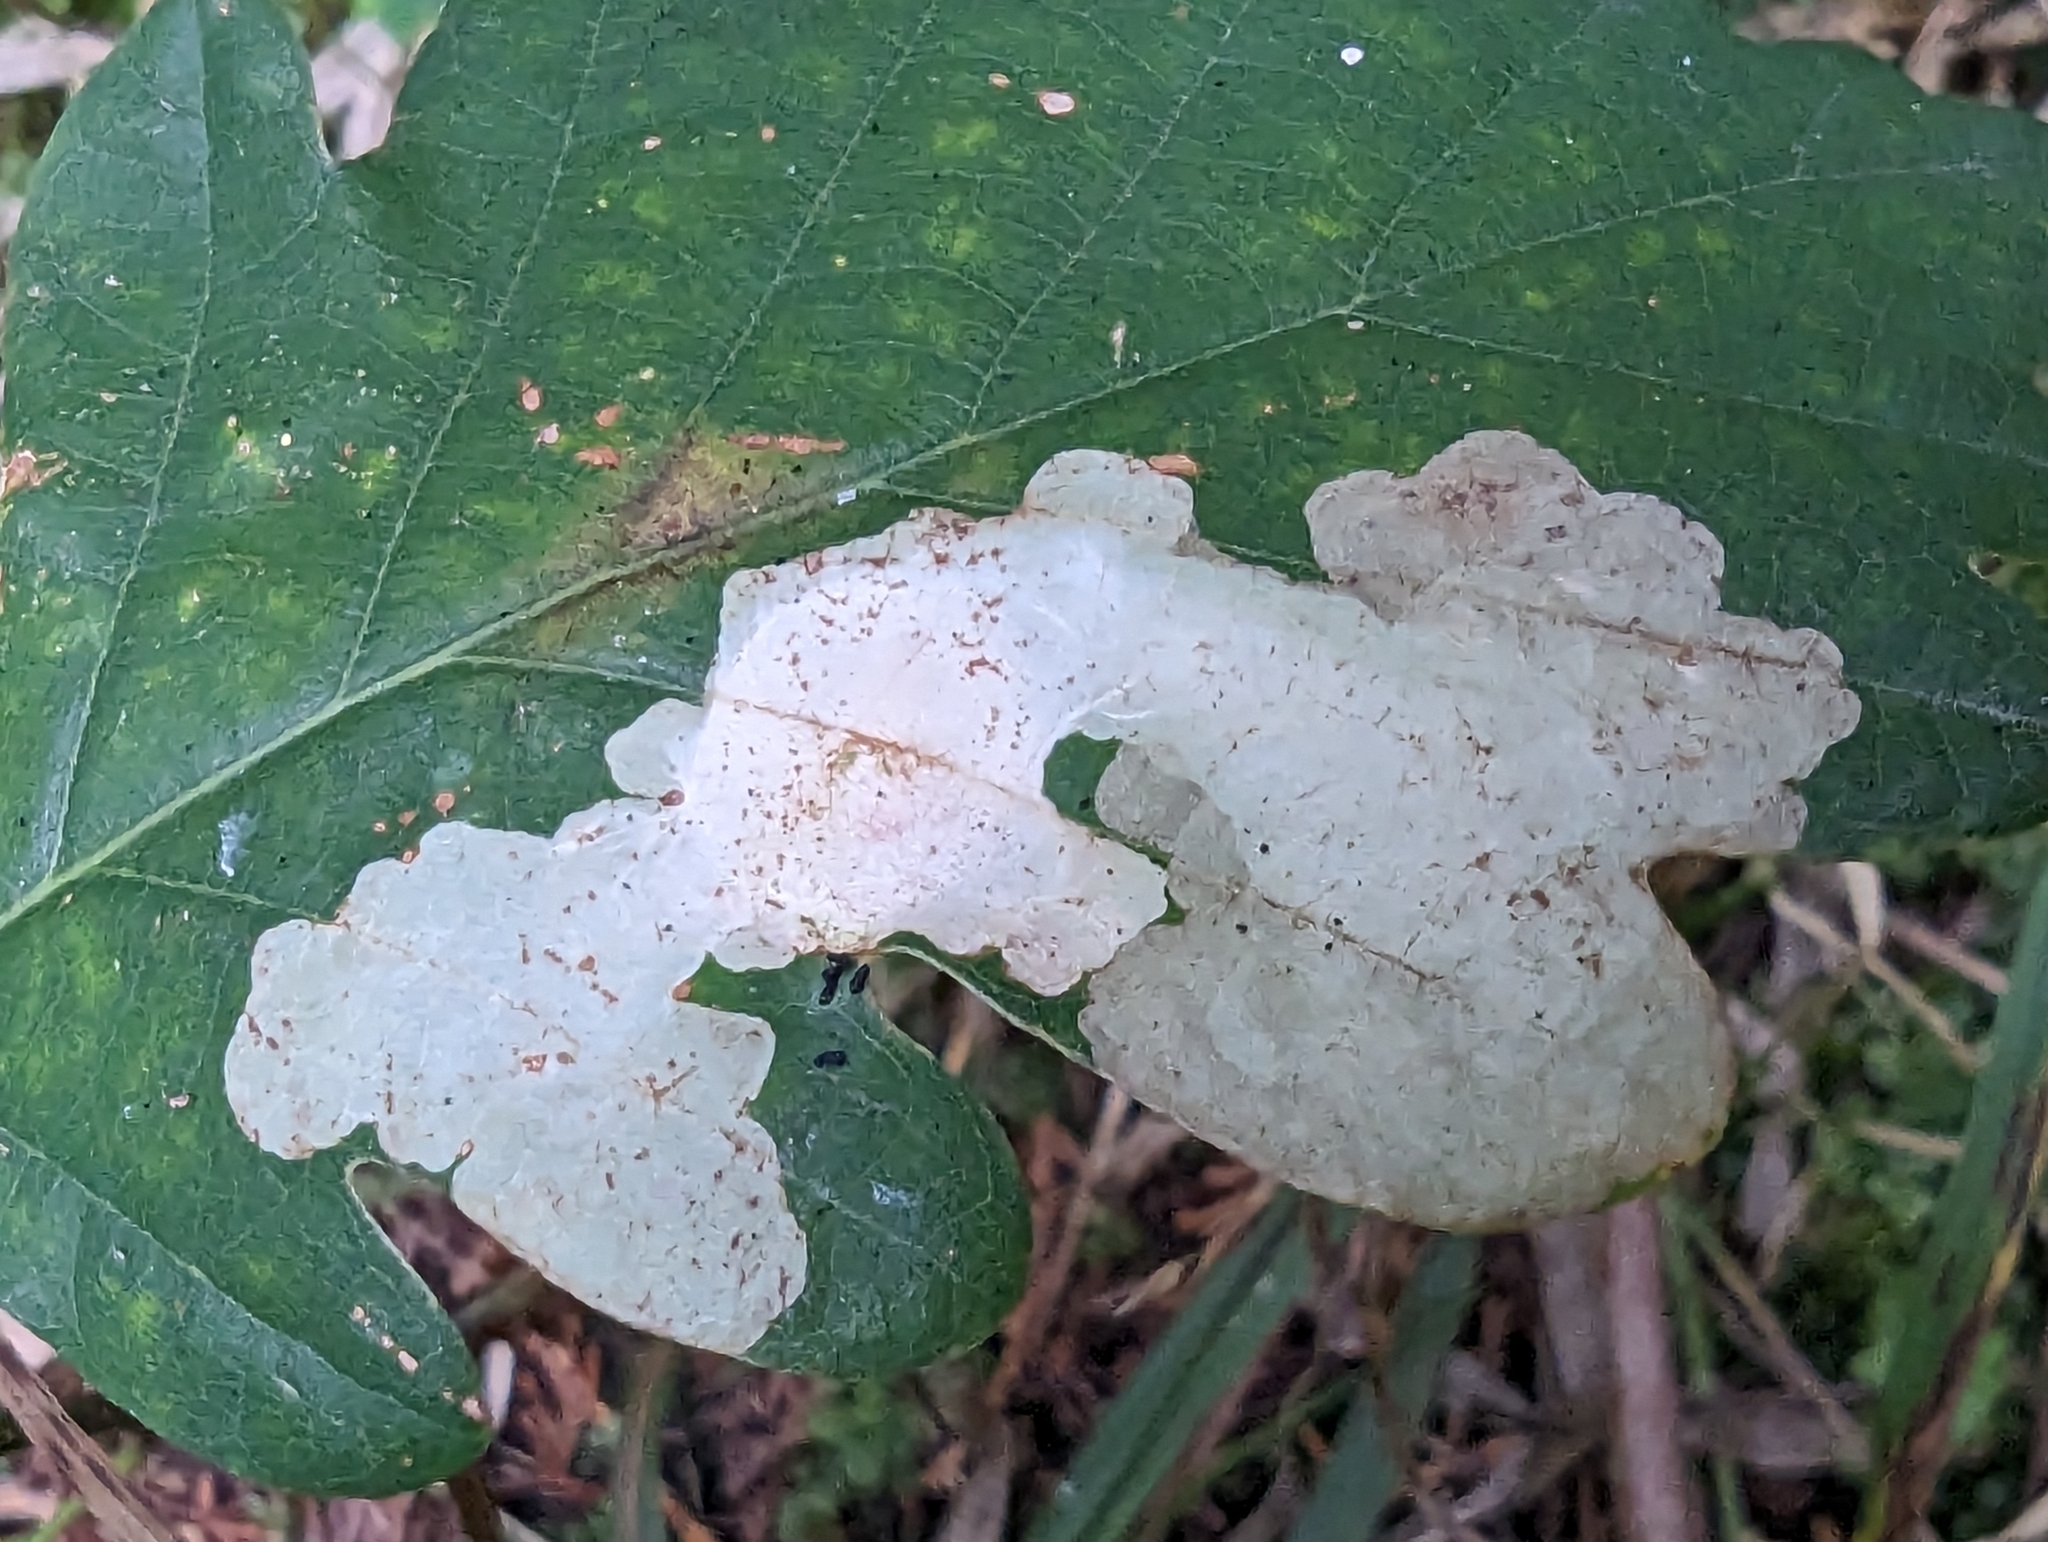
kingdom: Animalia
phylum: Arthropoda
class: Insecta
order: Lepidoptera
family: Tischeriidae
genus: Tischeria
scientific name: Tischeria ekebladella
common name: Oak carl
